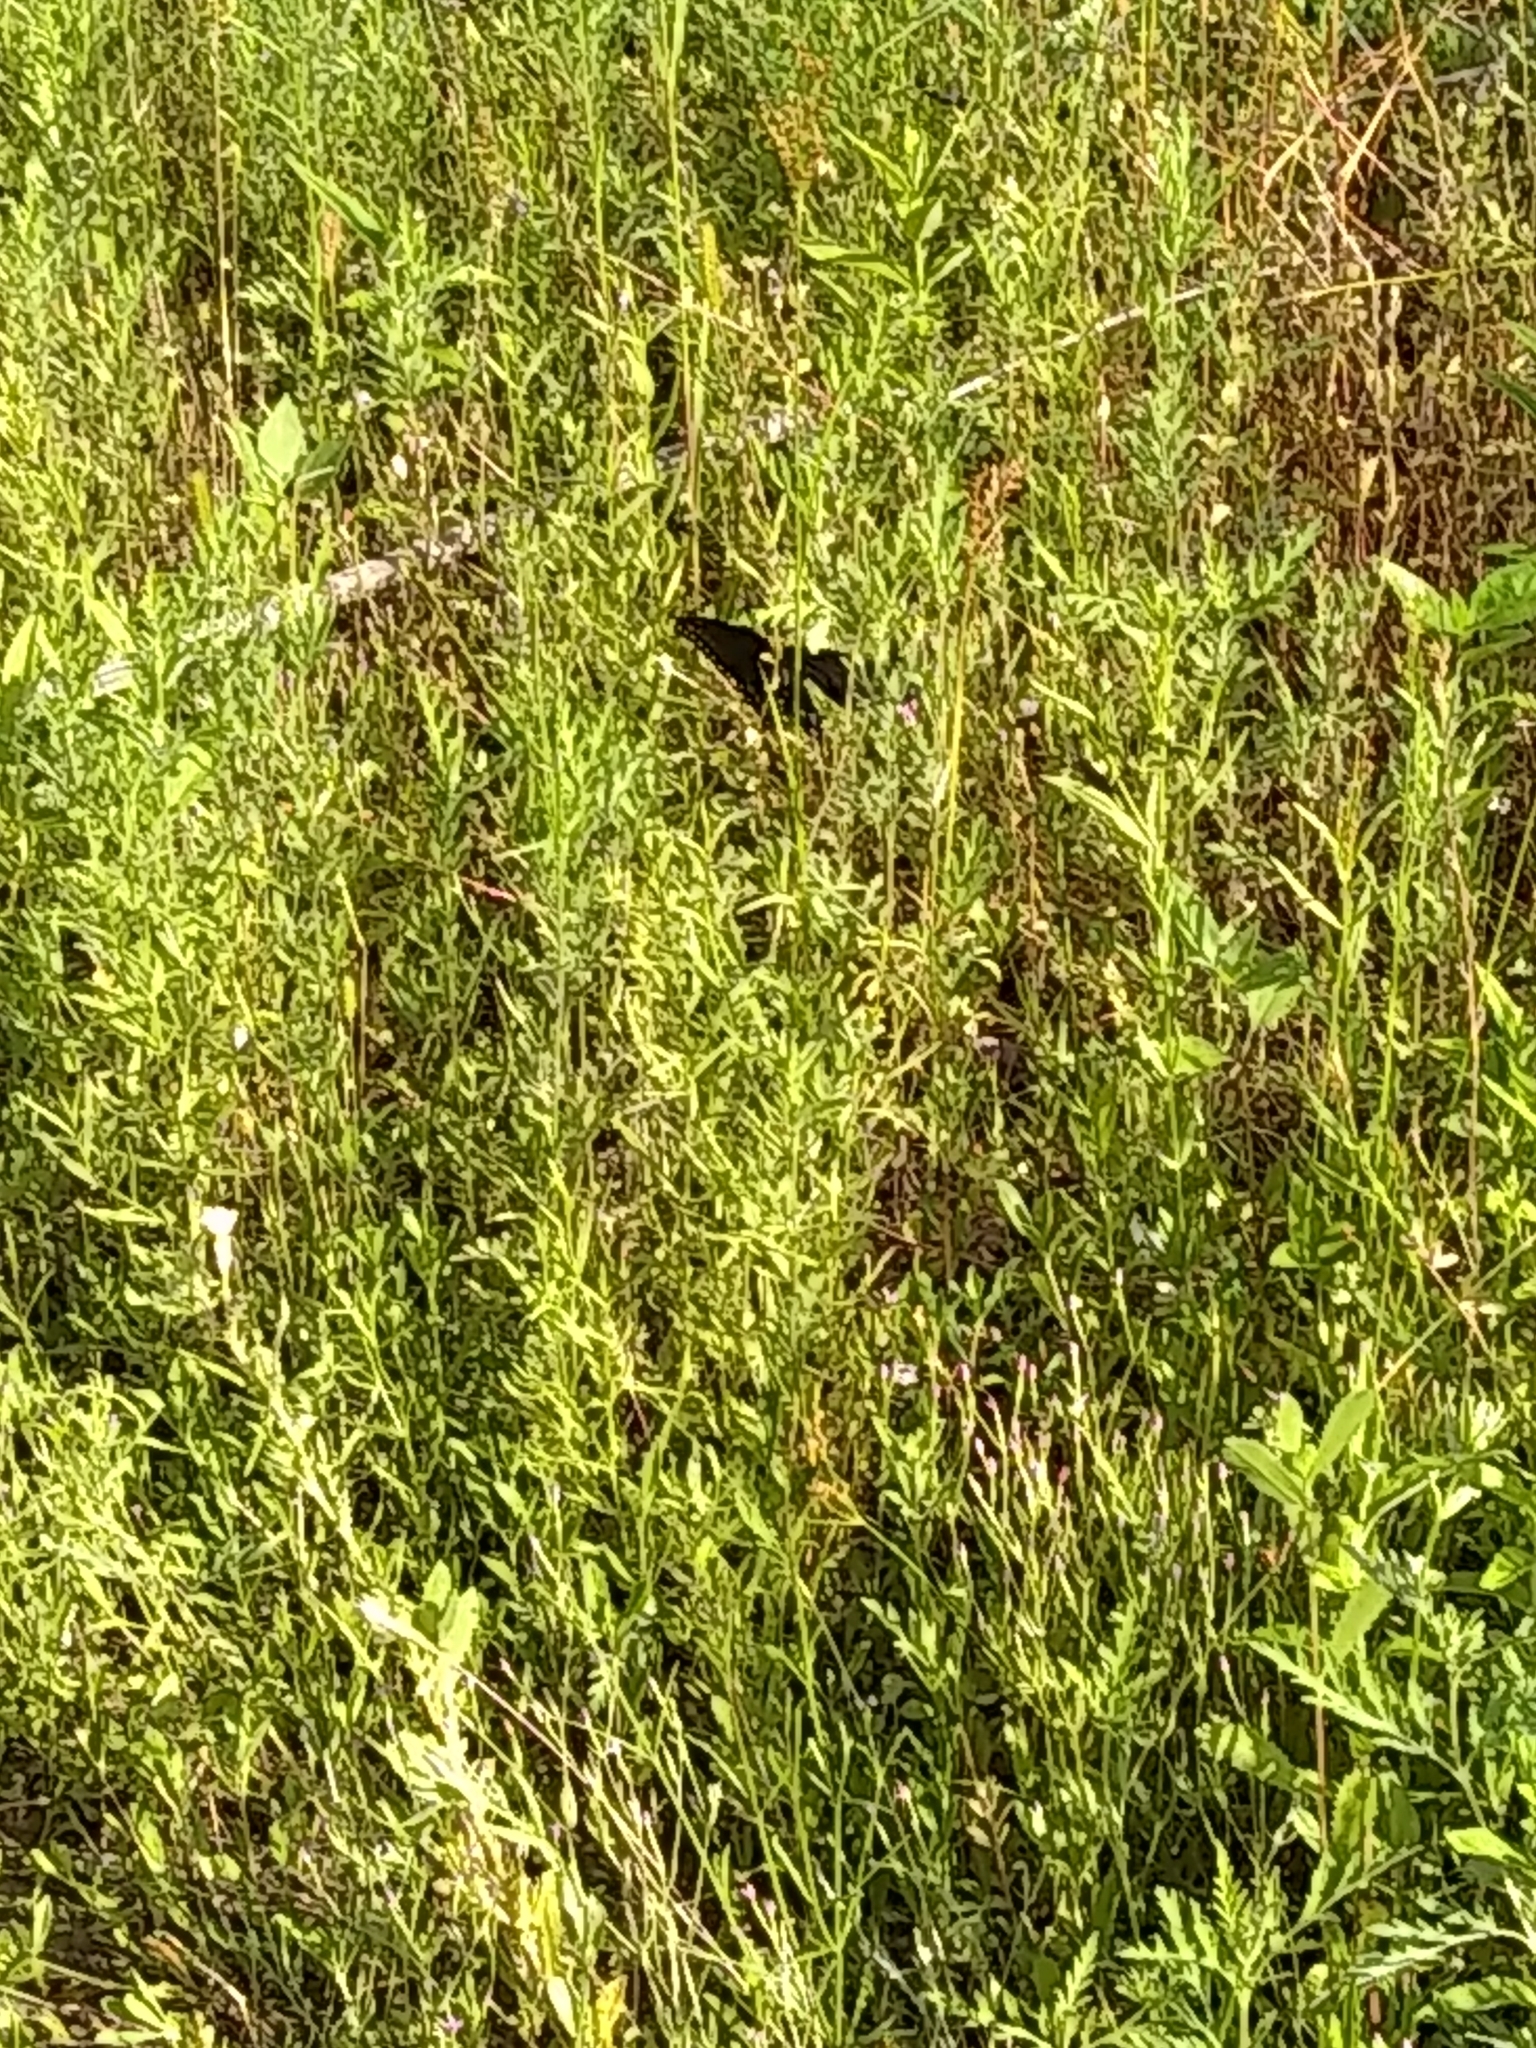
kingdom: Animalia
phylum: Arthropoda
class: Insecta
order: Lepidoptera
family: Papilionidae
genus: Papilio
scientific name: Papilio polyxenes
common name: Black swallowtail
